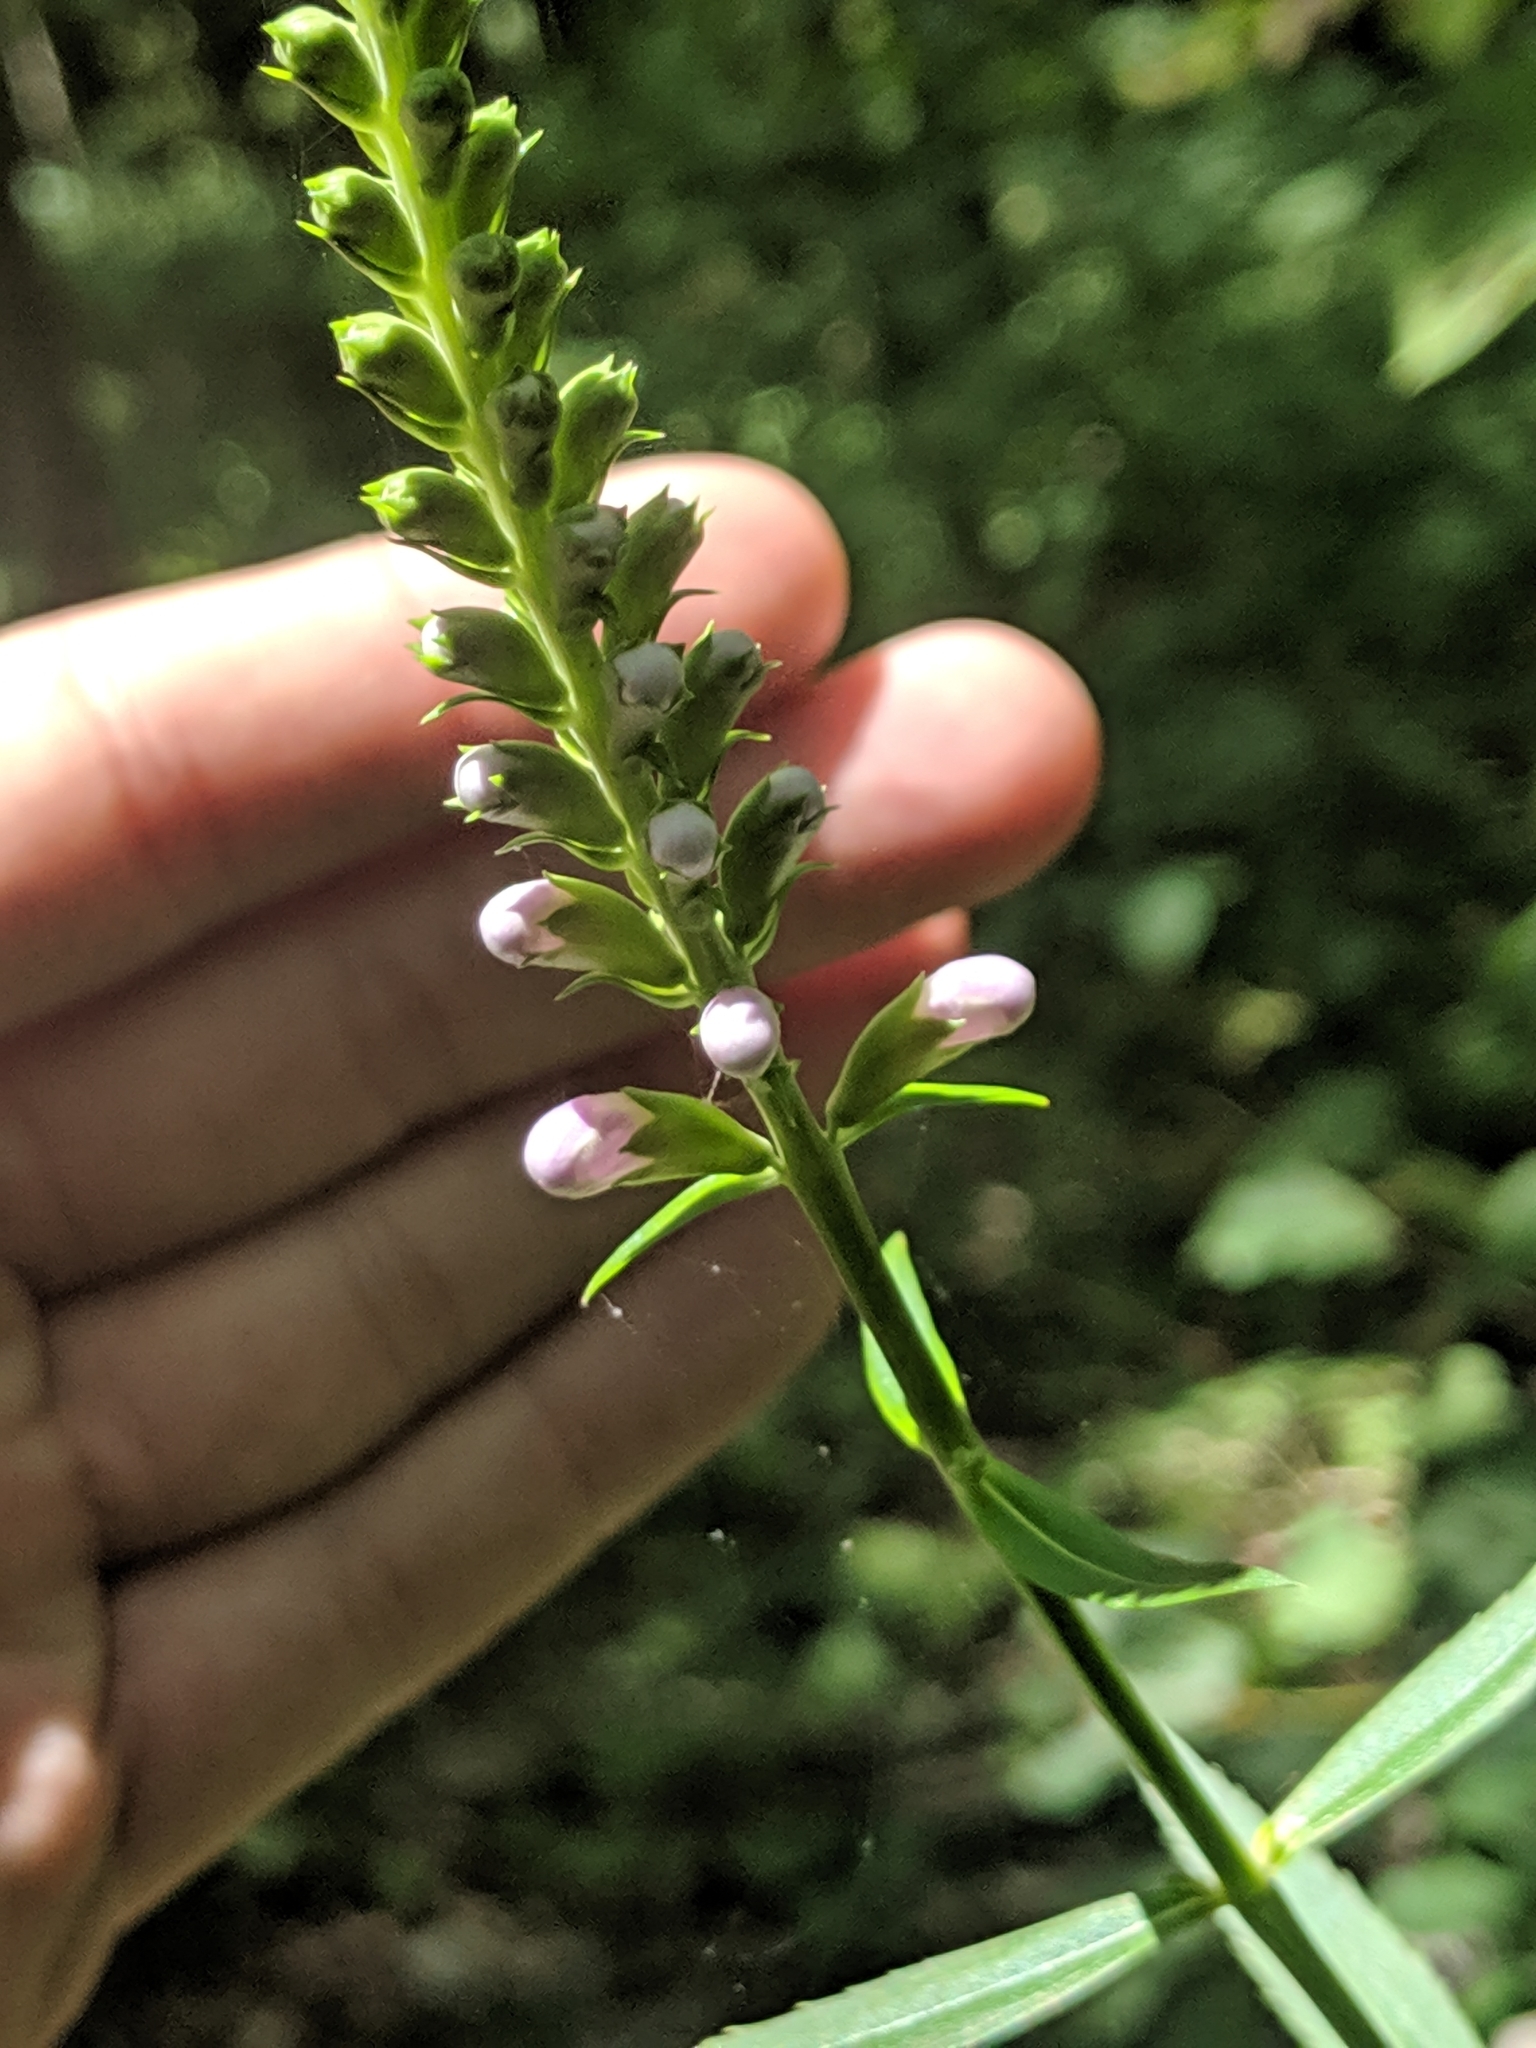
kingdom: Plantae
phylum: Tracheophyta
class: Magnoliopsida
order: Lamiales
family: Lamiaceae
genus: Physostegia
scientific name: Physostegia virginiana
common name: Obedient-plant
